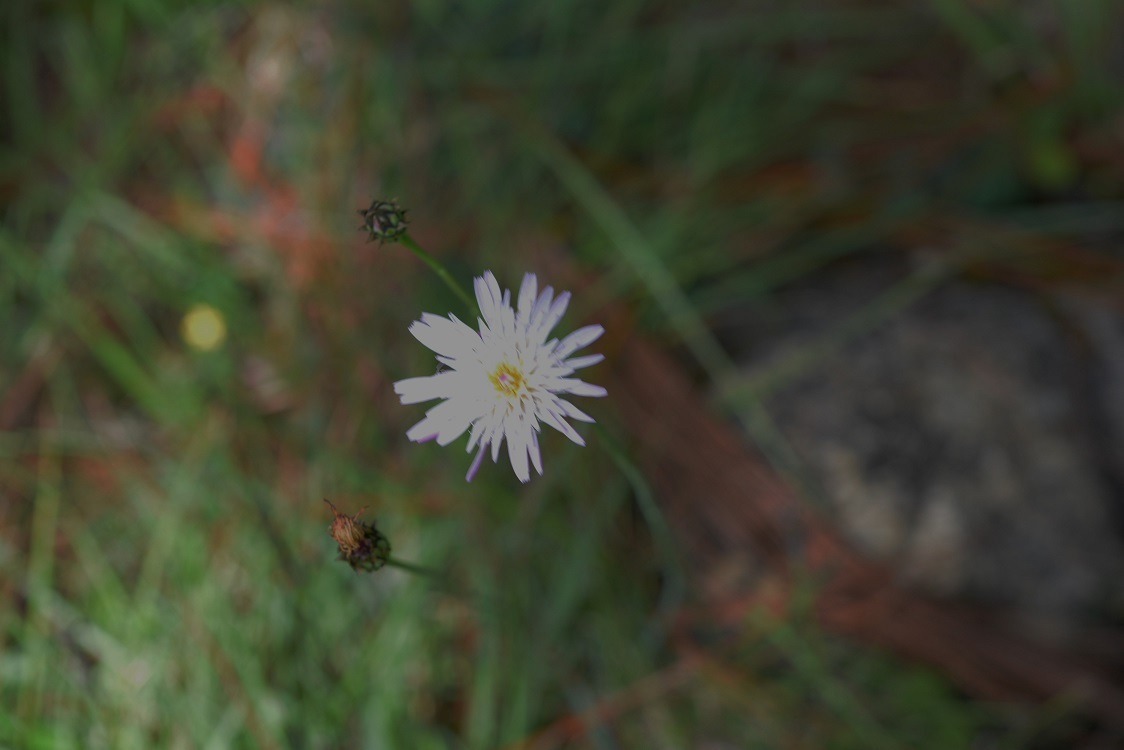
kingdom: Plantae
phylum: Tracheophyta
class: Magnoliopsida
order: Asterales
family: Asteraceae
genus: Pinaropappus
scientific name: Pinaropappus spathulatus
